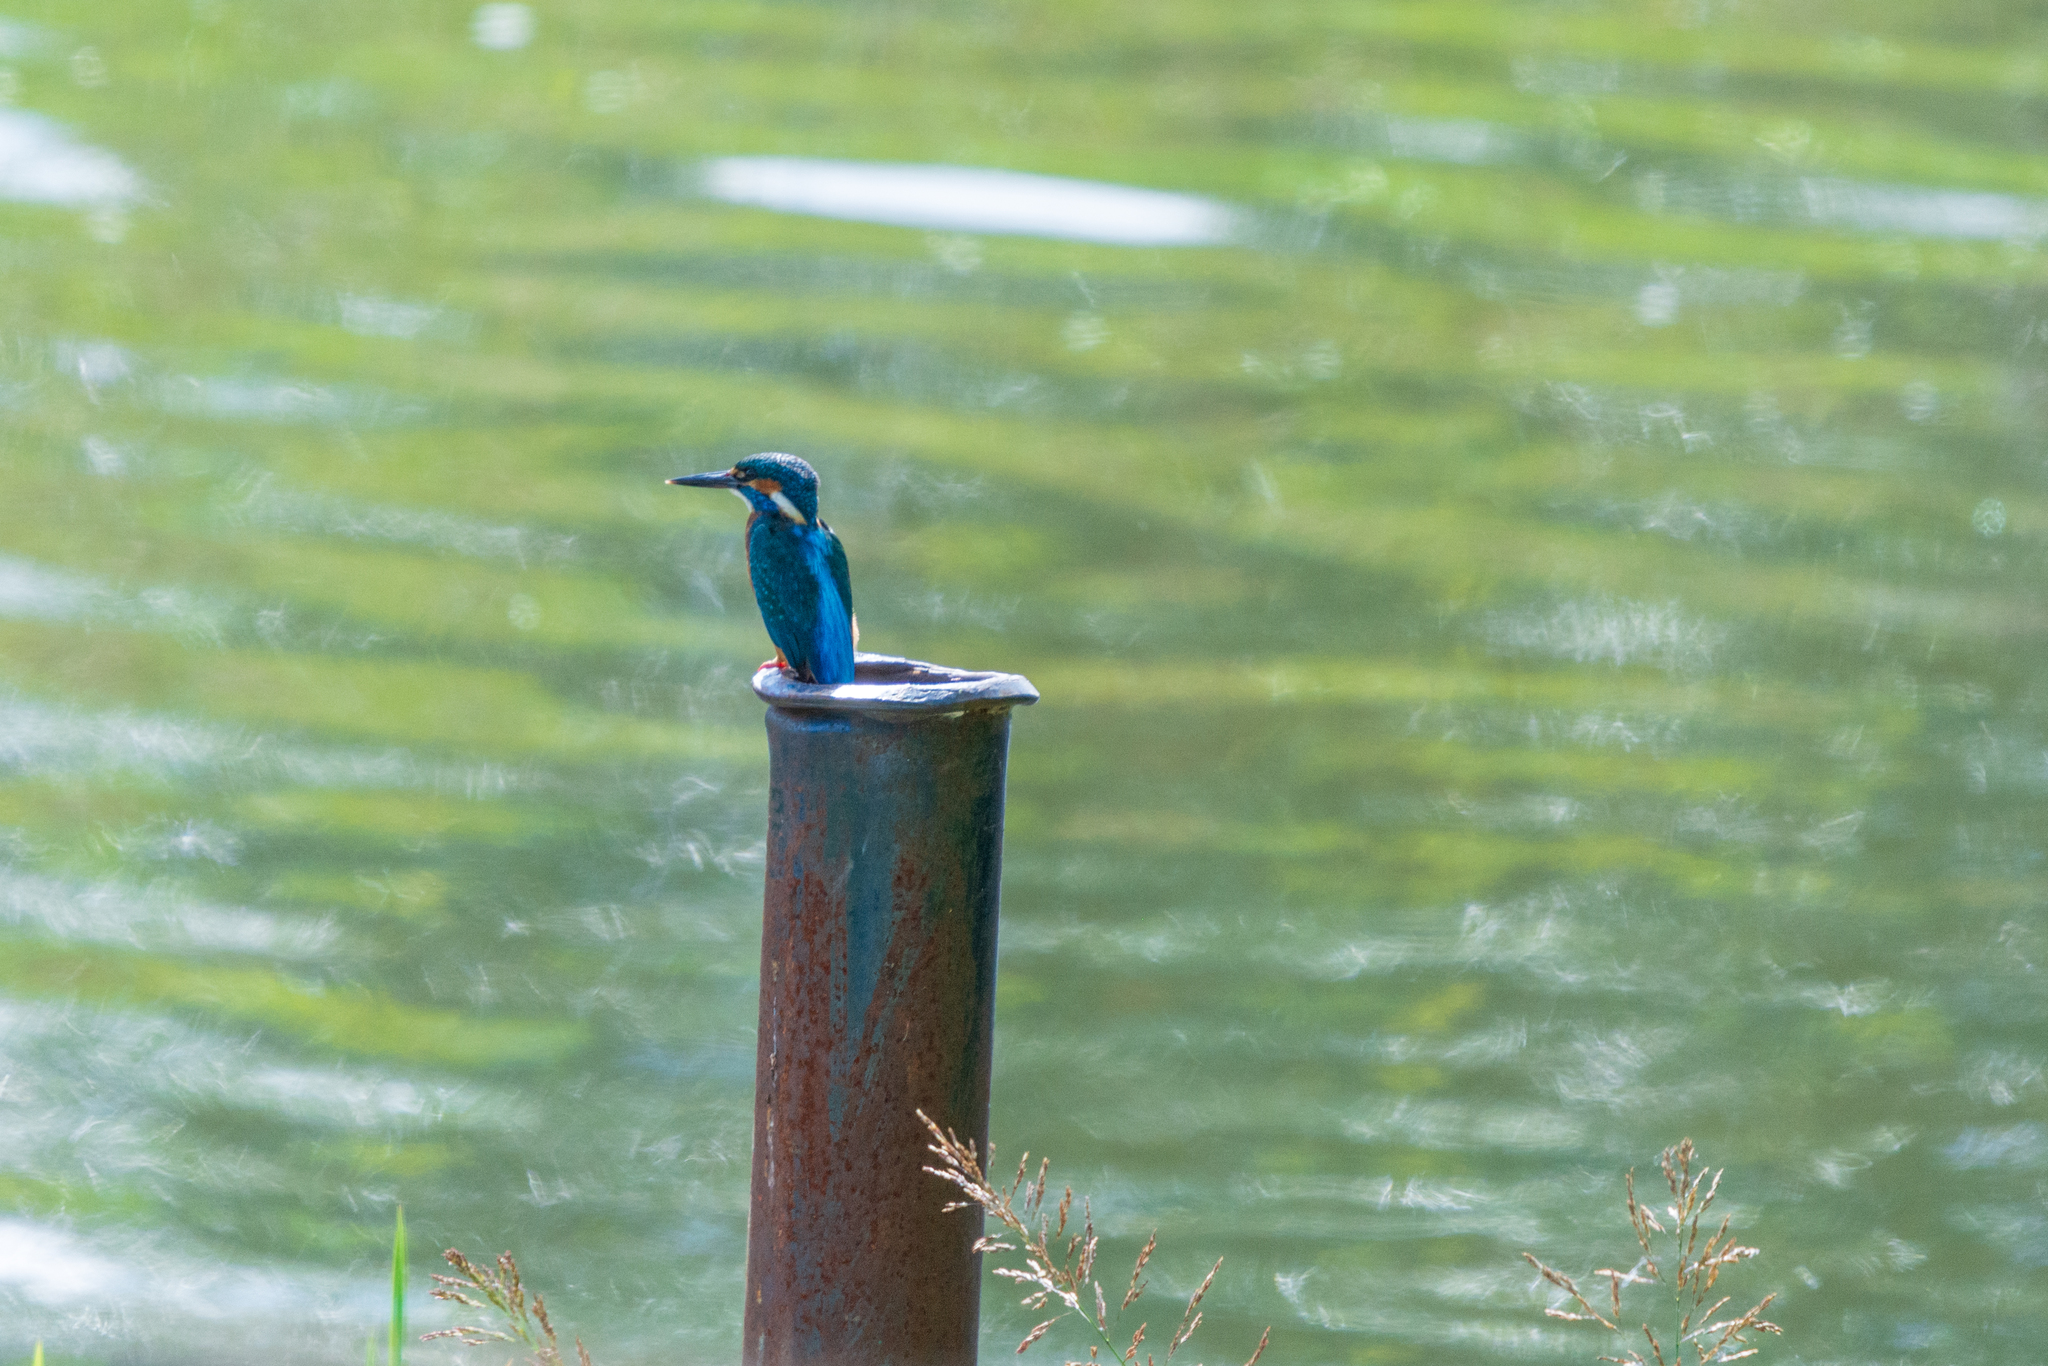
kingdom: Animalia
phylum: Chordata
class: Aves
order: Coraciiformes
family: Alcedinidae
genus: Alcedo
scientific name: Alcedo atthis
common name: Common kingfisher
